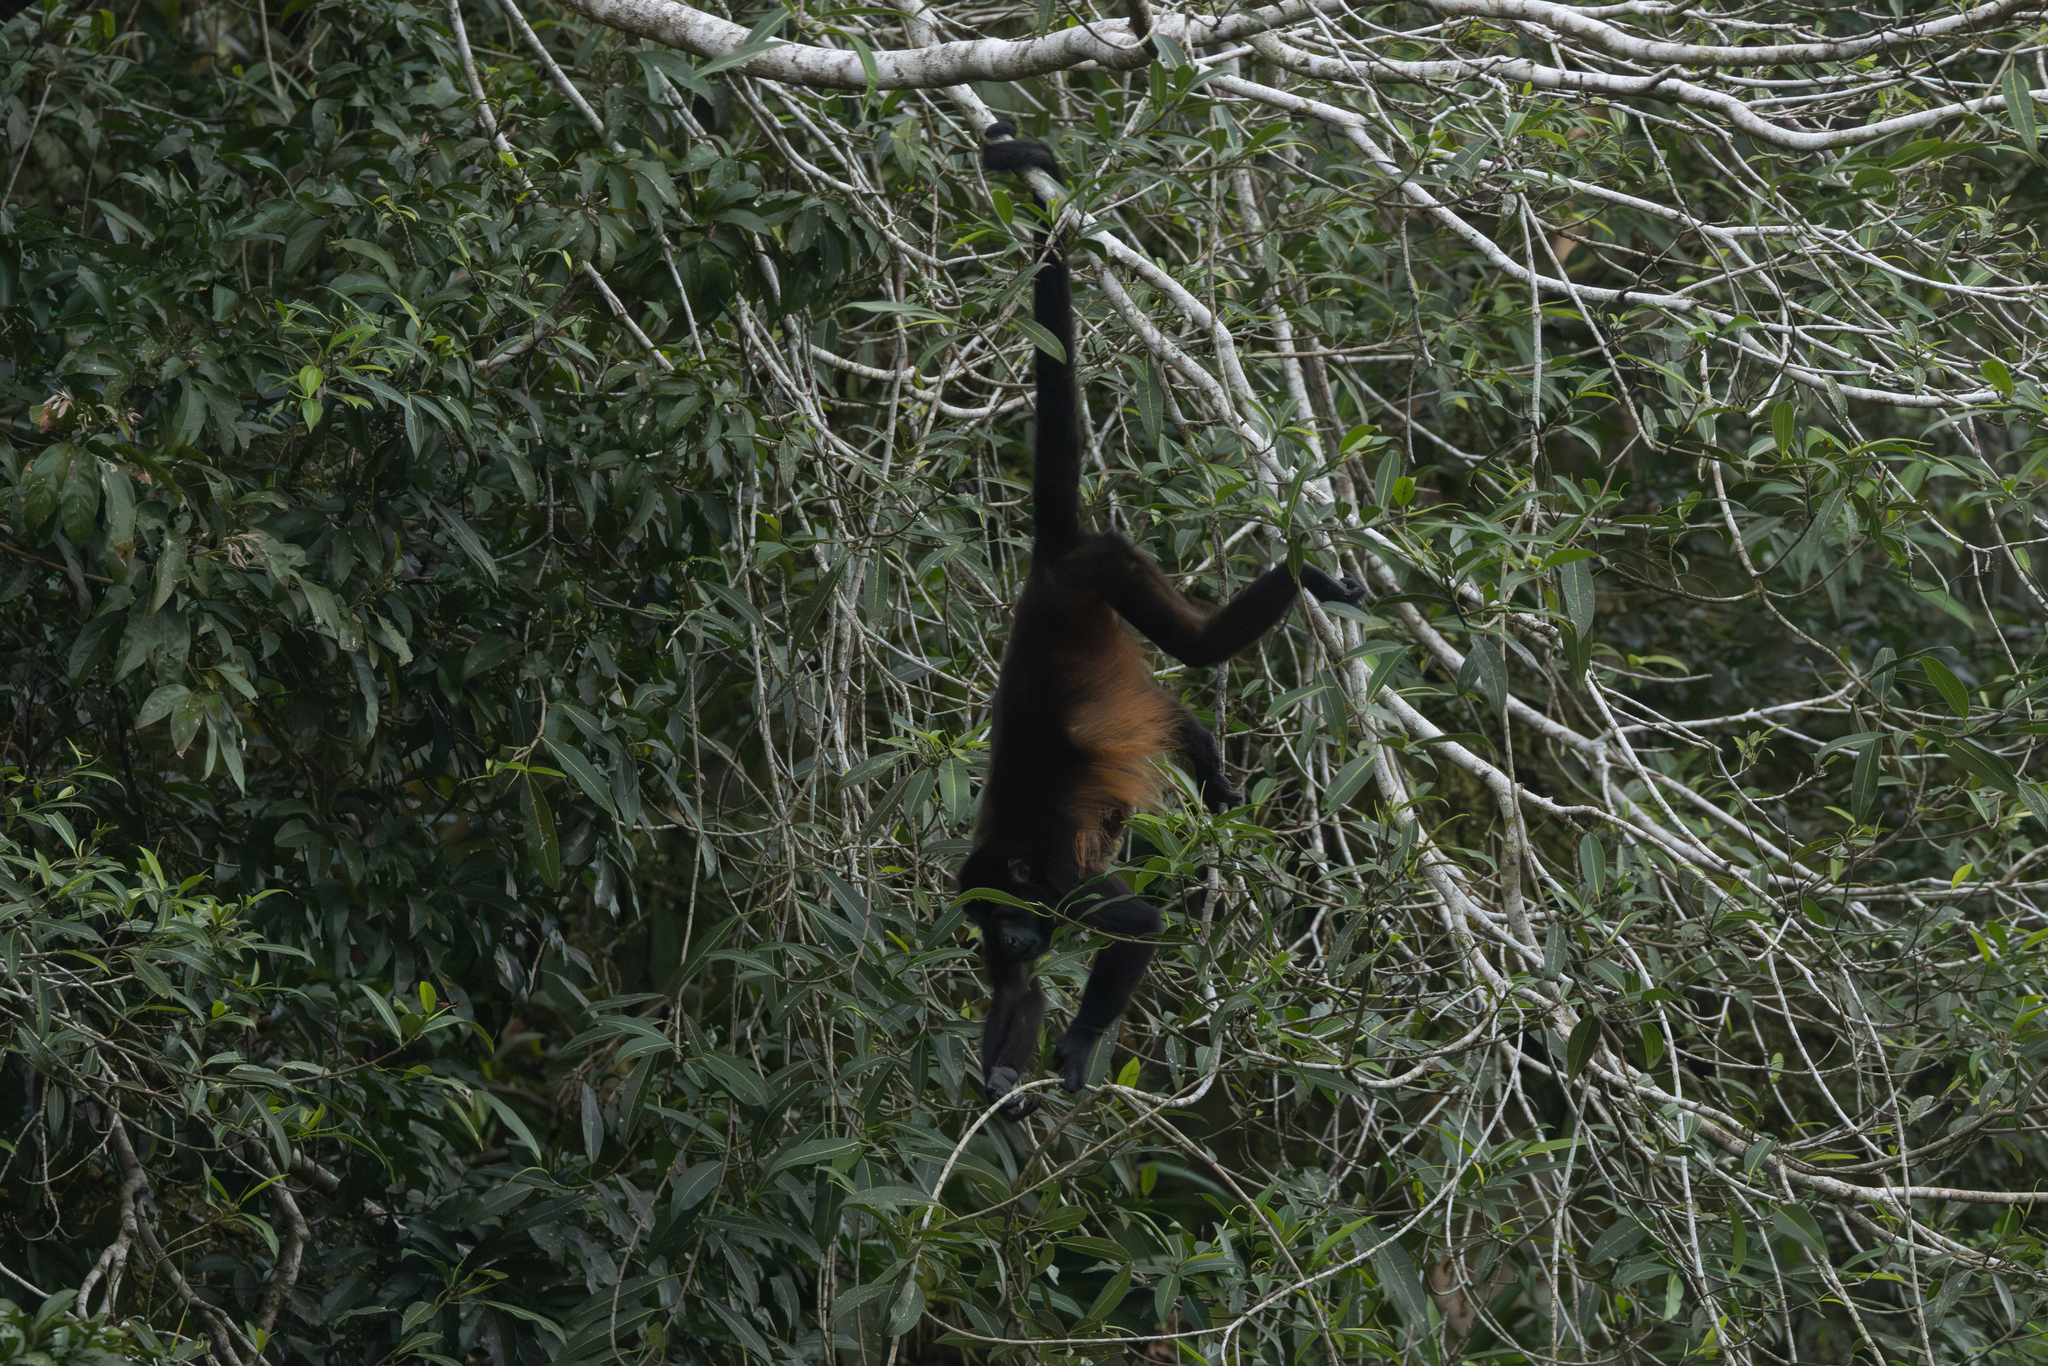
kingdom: Animalia
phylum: Chordata
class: Mammalia
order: Primates
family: Atelidae
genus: Alouatta
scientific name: Alouatta palliata
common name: Mantled howler
